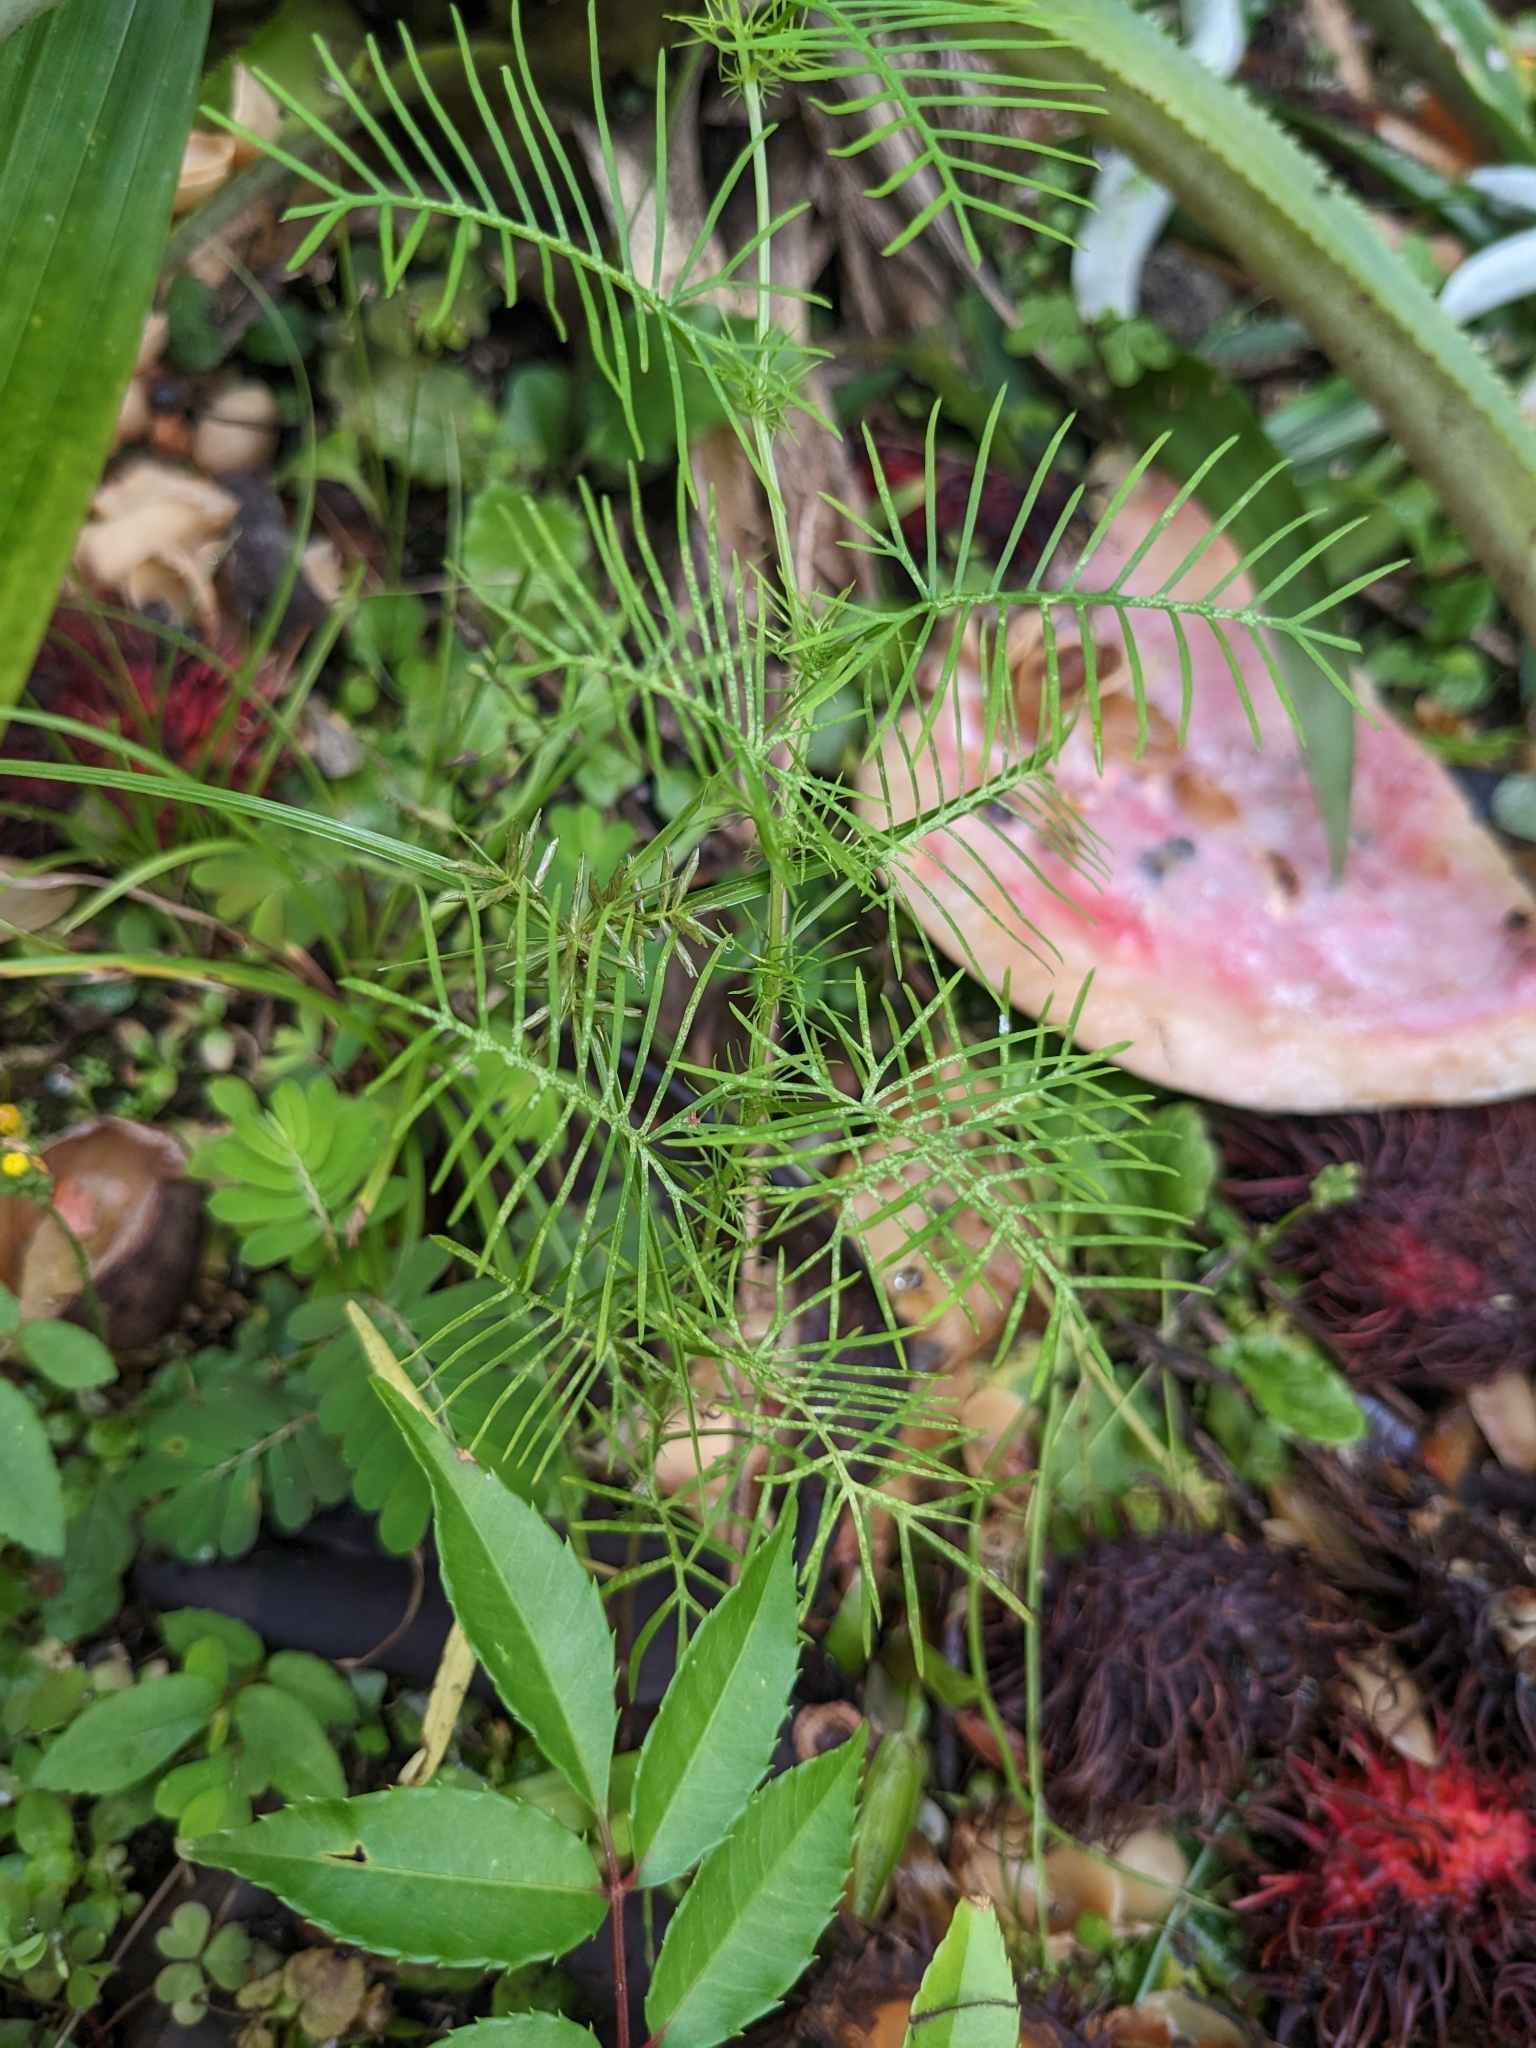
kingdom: Plantae
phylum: Tracheophyta
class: Magnoliopsida
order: Solanales
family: Convolvulaceae
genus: Ipomoea
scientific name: Ipomoea quamoclit
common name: Cypress vine
